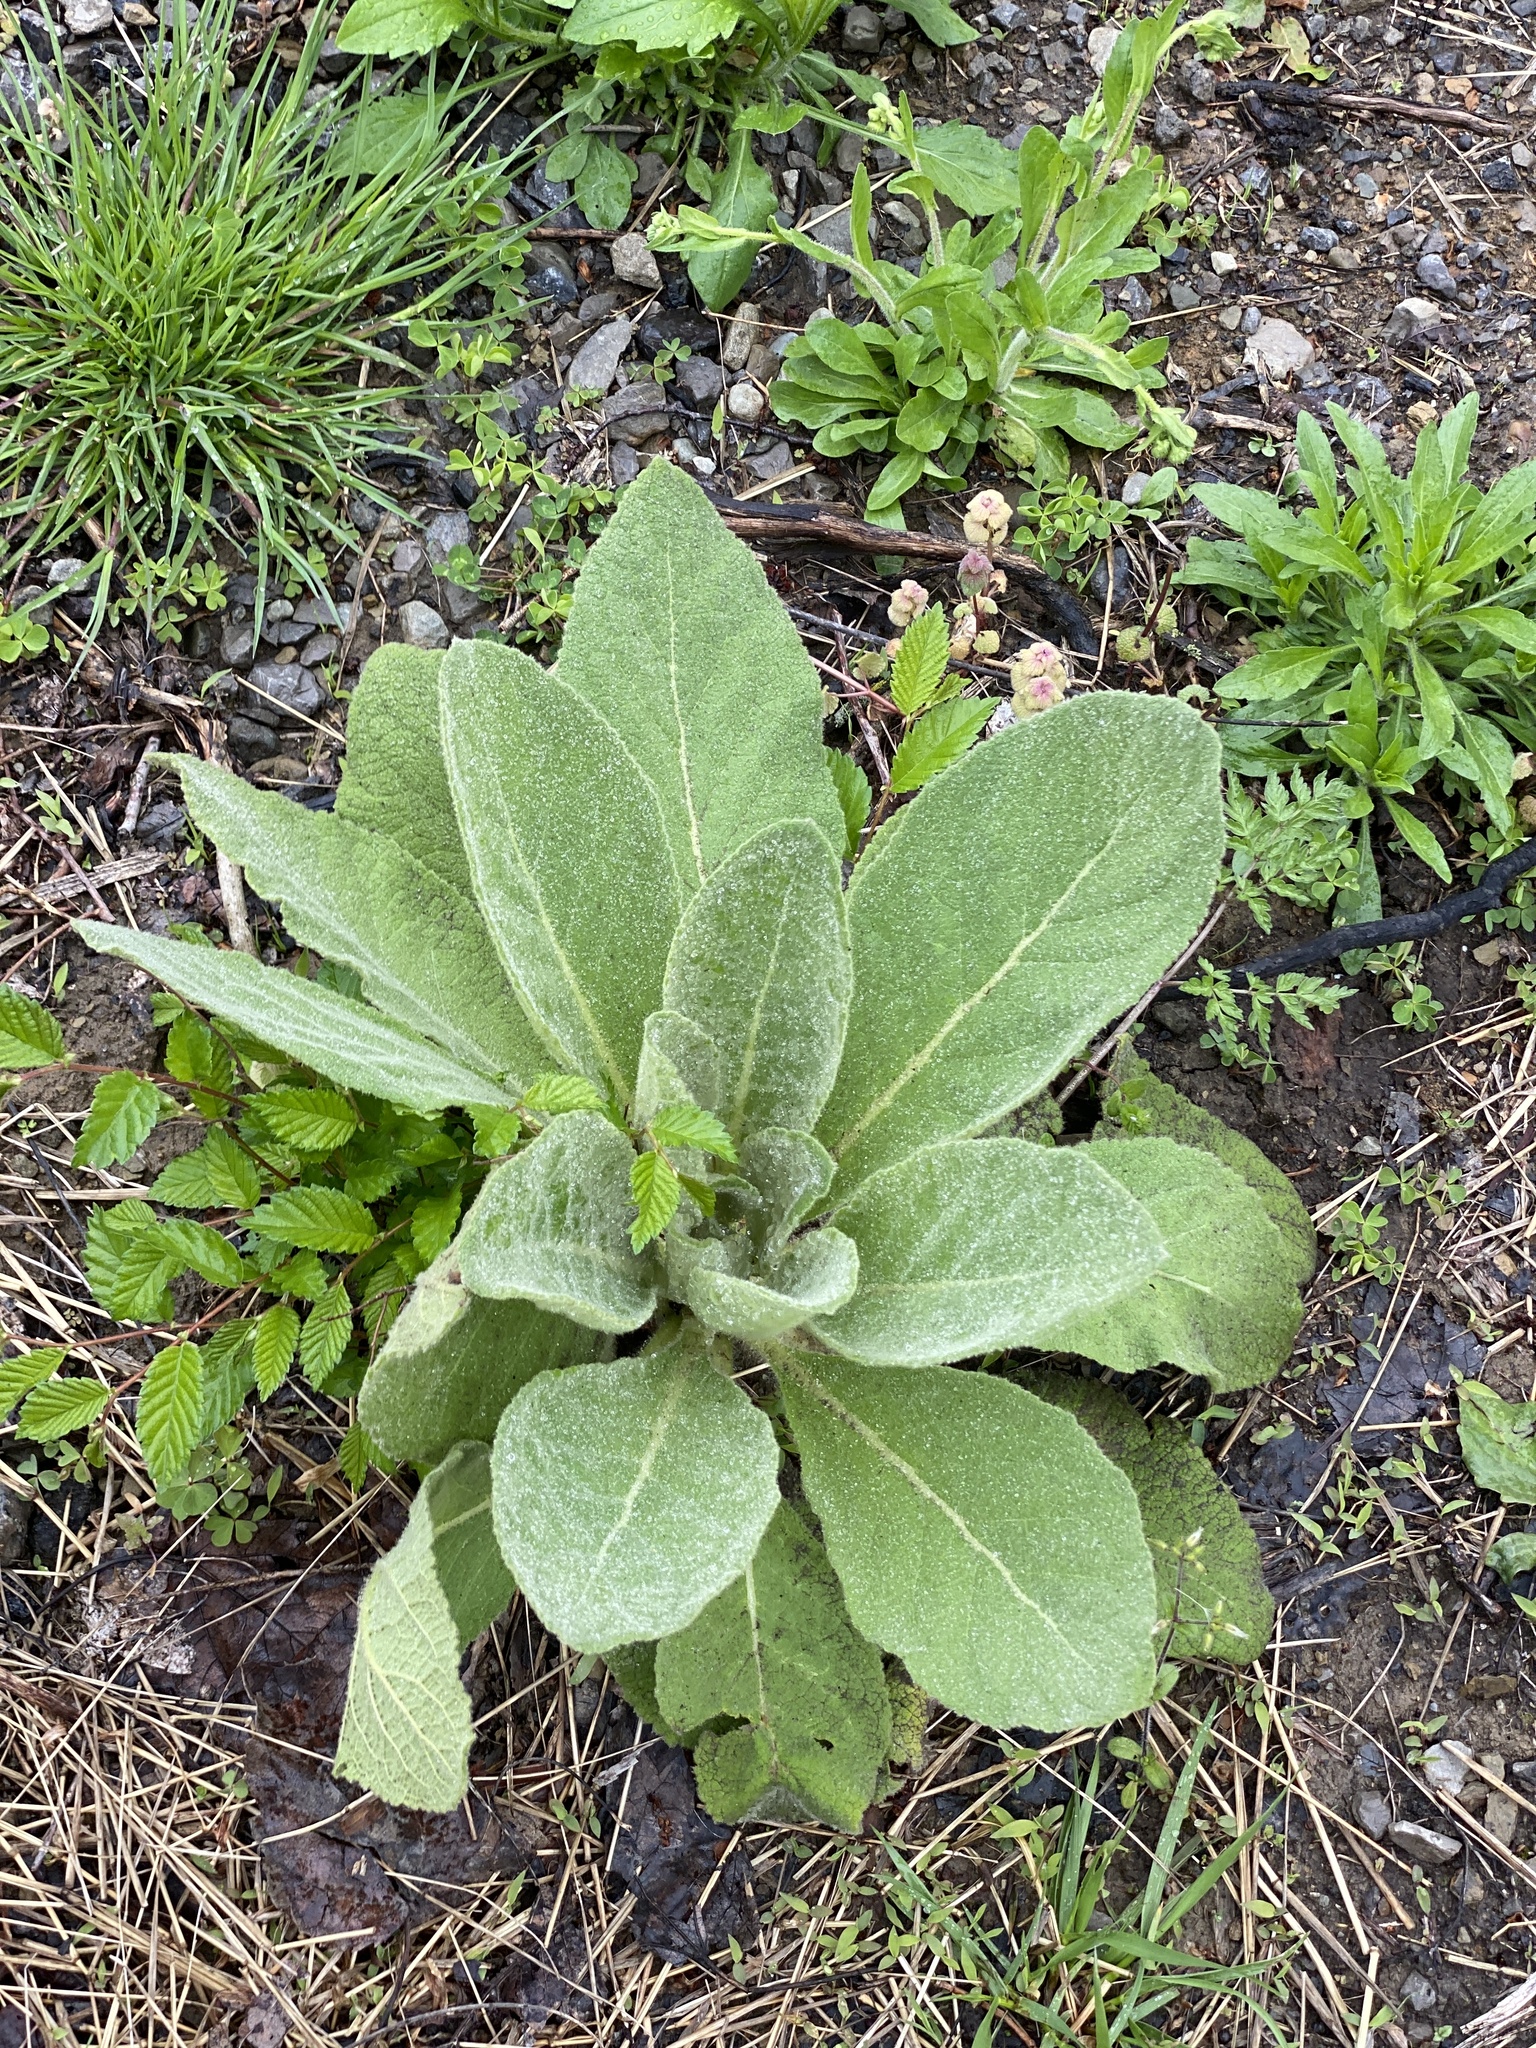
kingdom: Plantae
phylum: Tracheophyta
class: Magnoliopsida
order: Lamiales
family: Scrophulariaceae
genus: Verbascum
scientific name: Verbascum thapsus
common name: Common mullein
